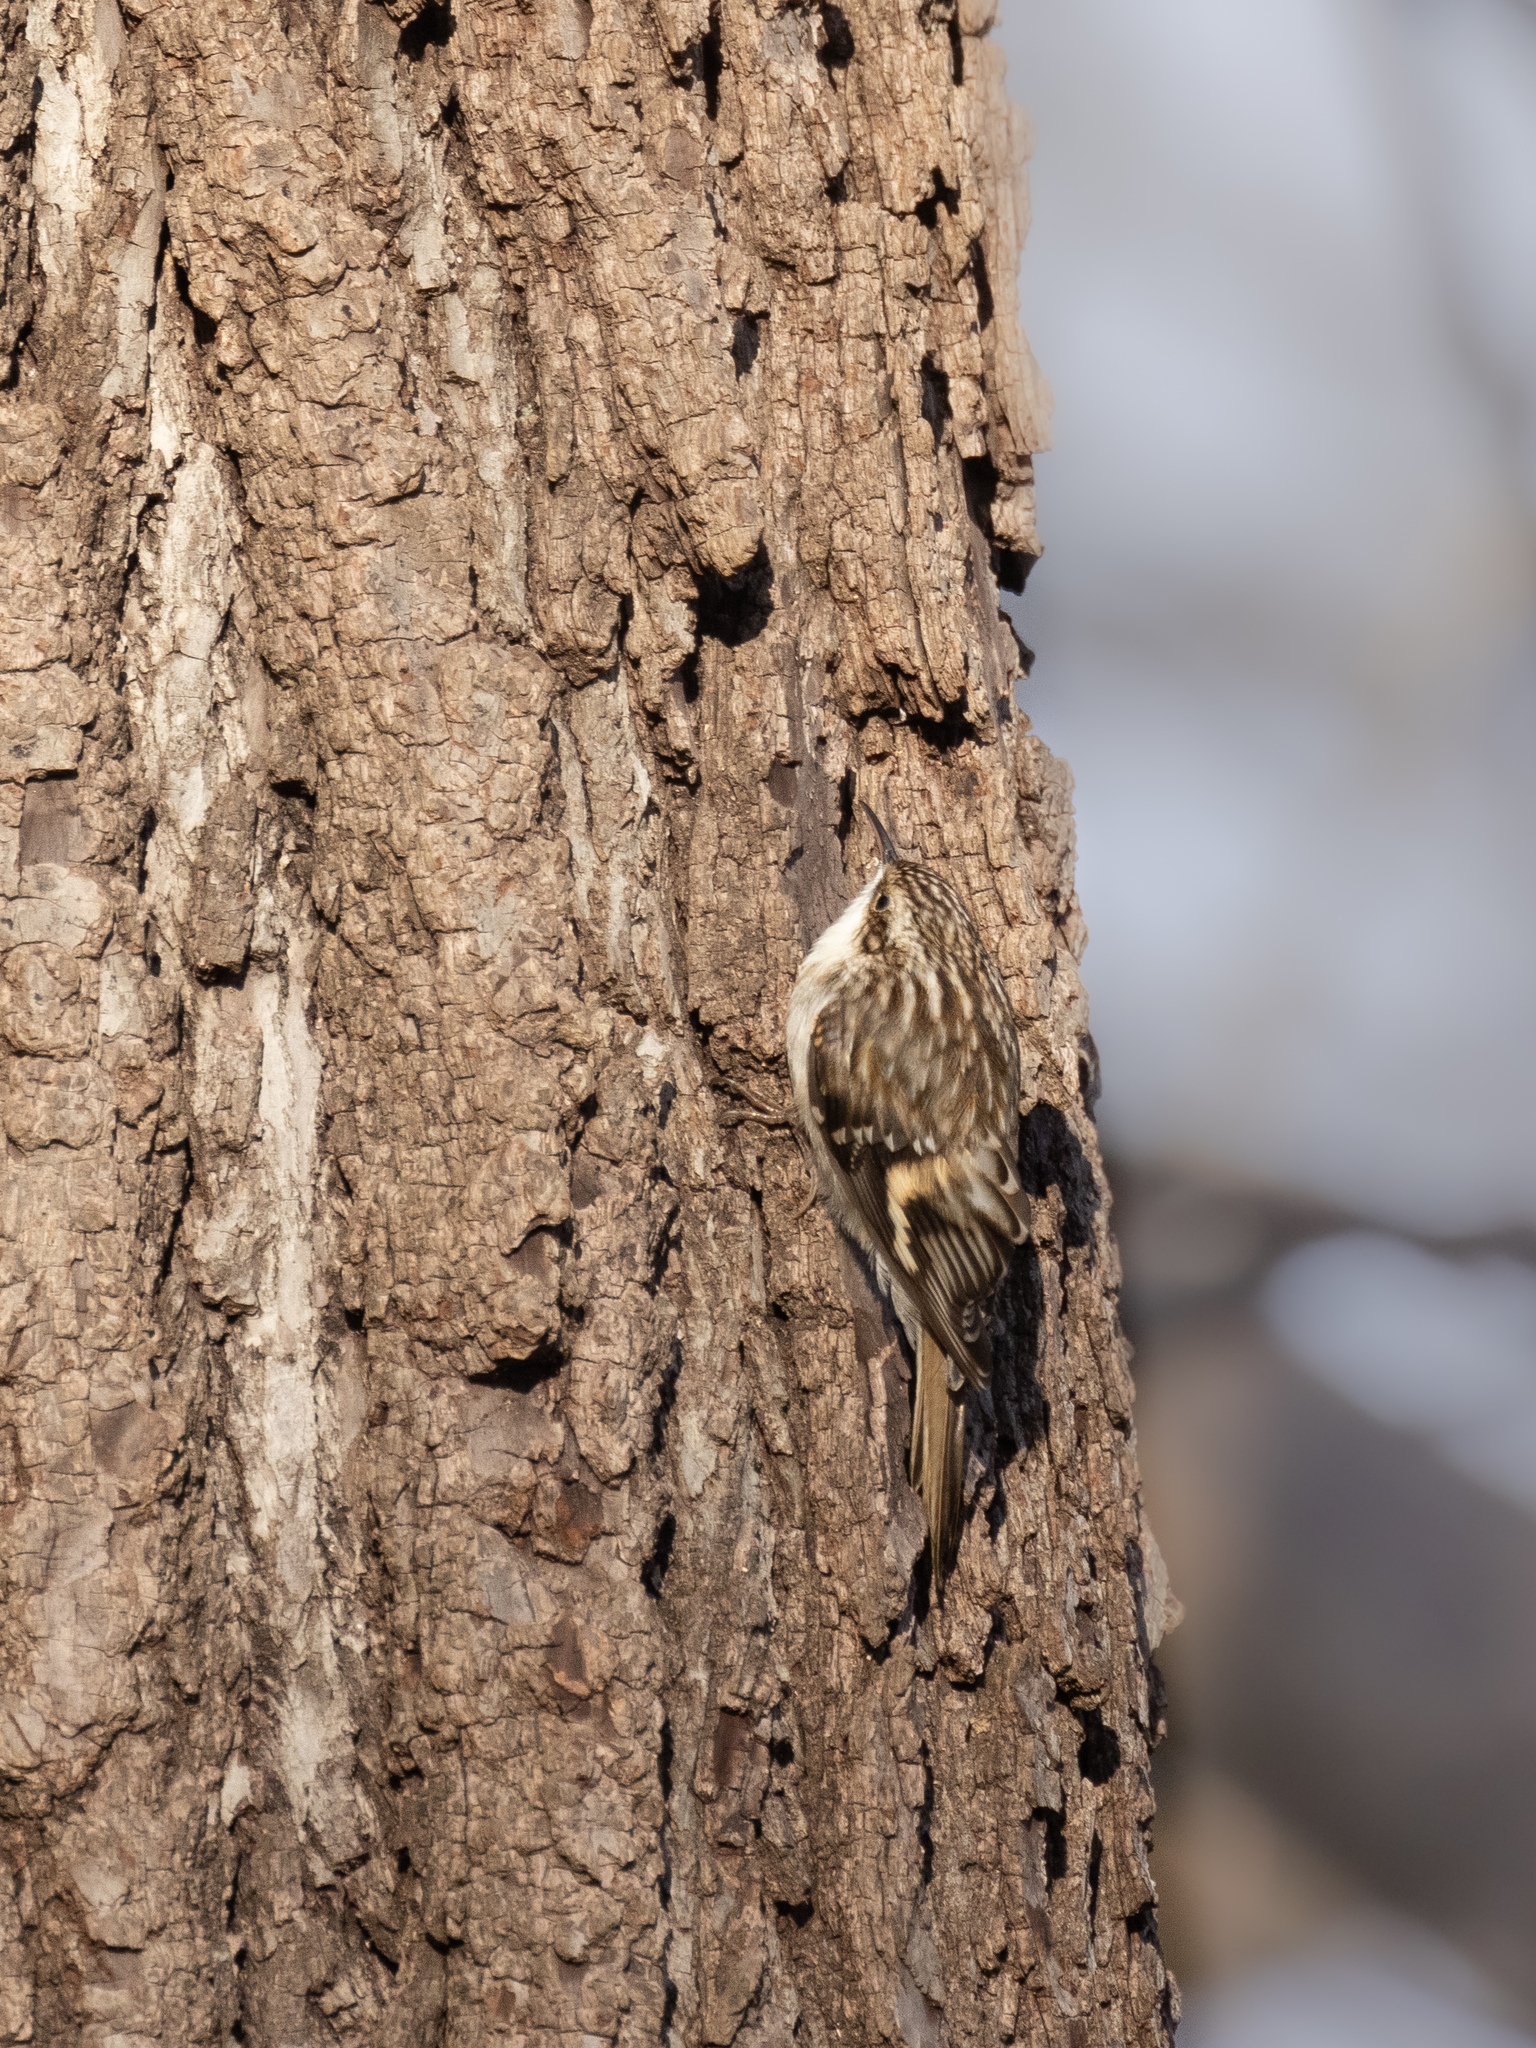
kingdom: Animalia
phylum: Chordata
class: Aves
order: Passeriformes
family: Certhiidae
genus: Certhia
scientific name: Certhia americana
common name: Brown creeper
